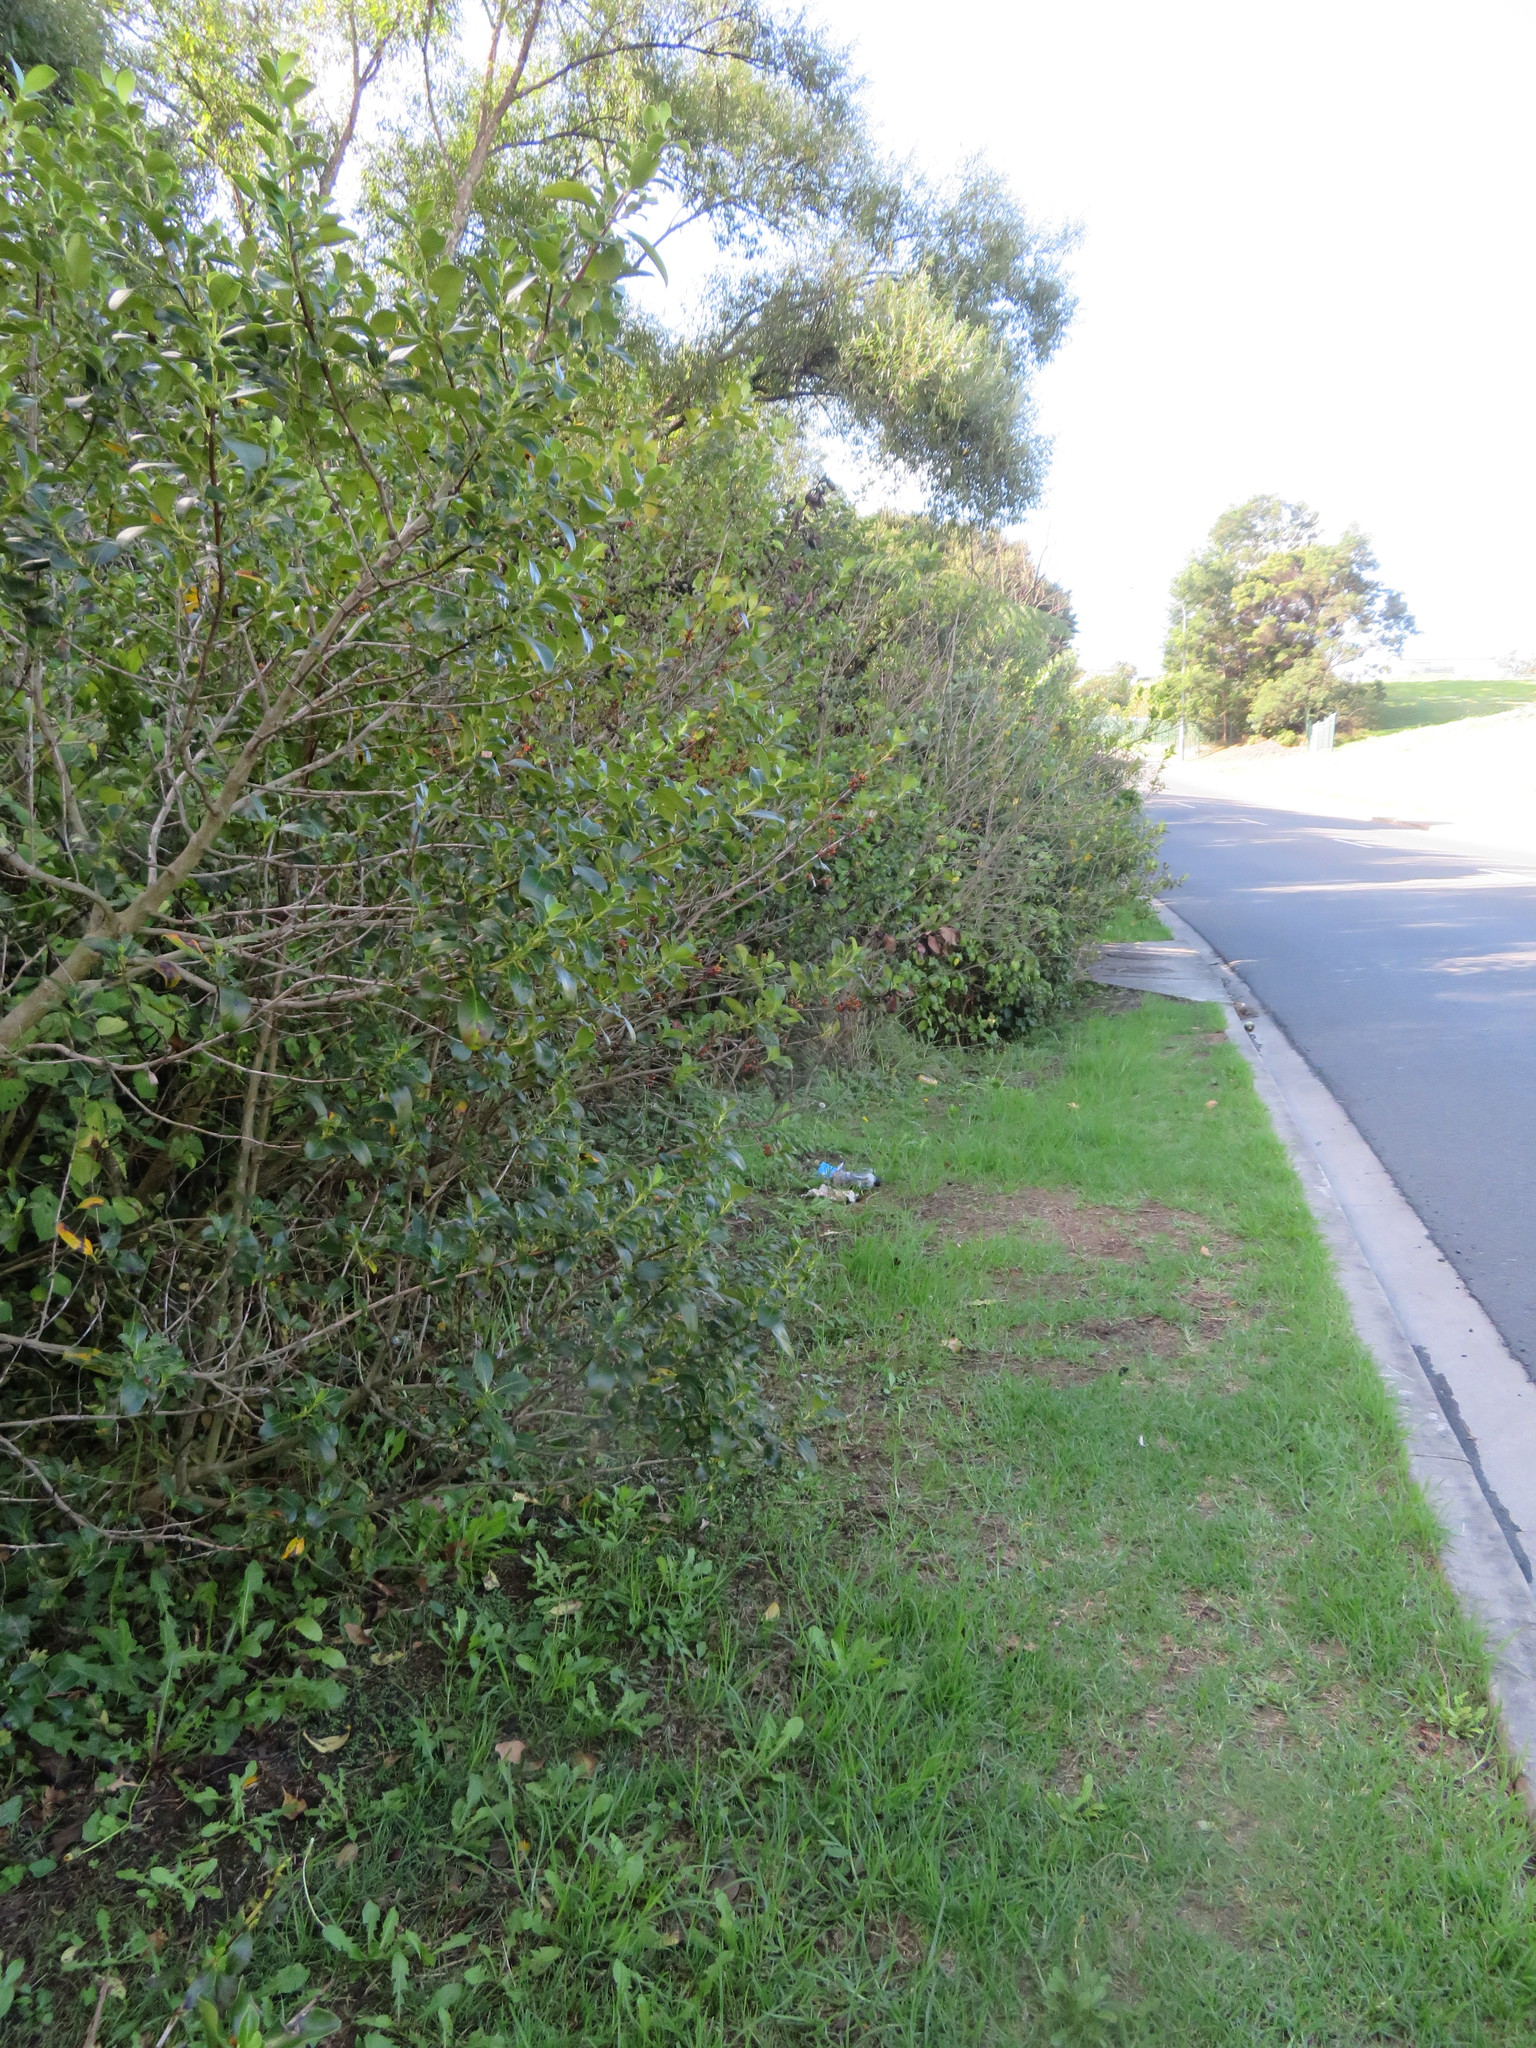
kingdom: Plantae
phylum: Tracheophyta
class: Magnoliopsida
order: Gentianales
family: Rubiaceae
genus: Coprosma
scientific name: Coprosma robusta
